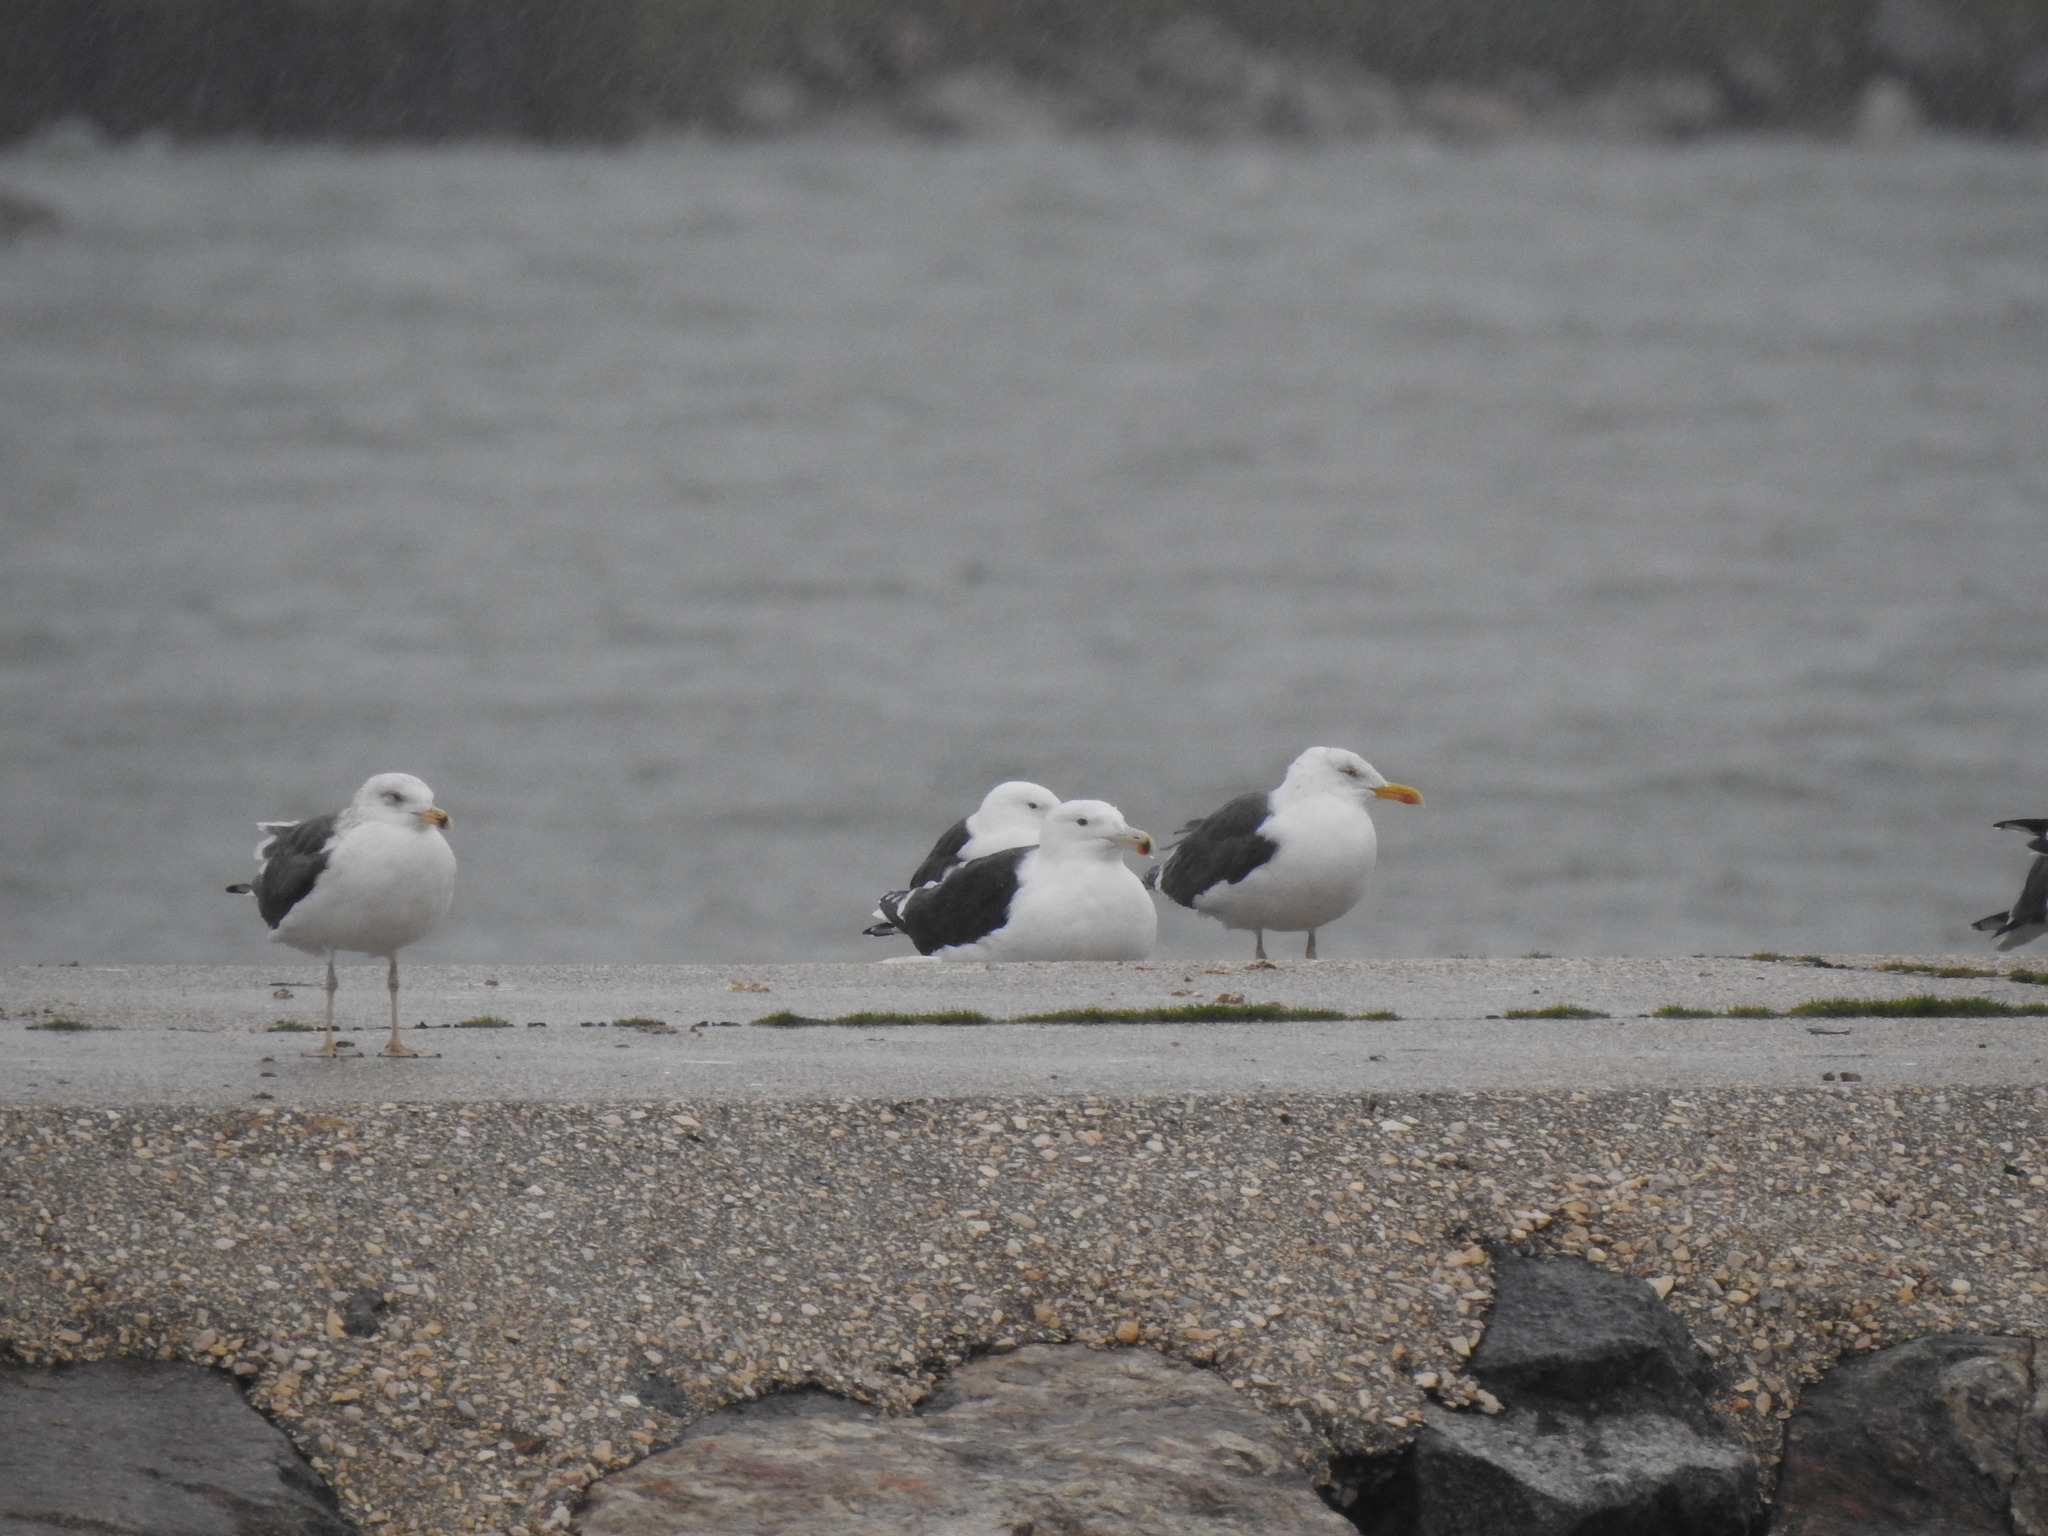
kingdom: Animalia
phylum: Chordata
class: Aves
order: Charadriiformes
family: Laridae
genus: Larus
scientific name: Larus marinus
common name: Great black-backed gull
